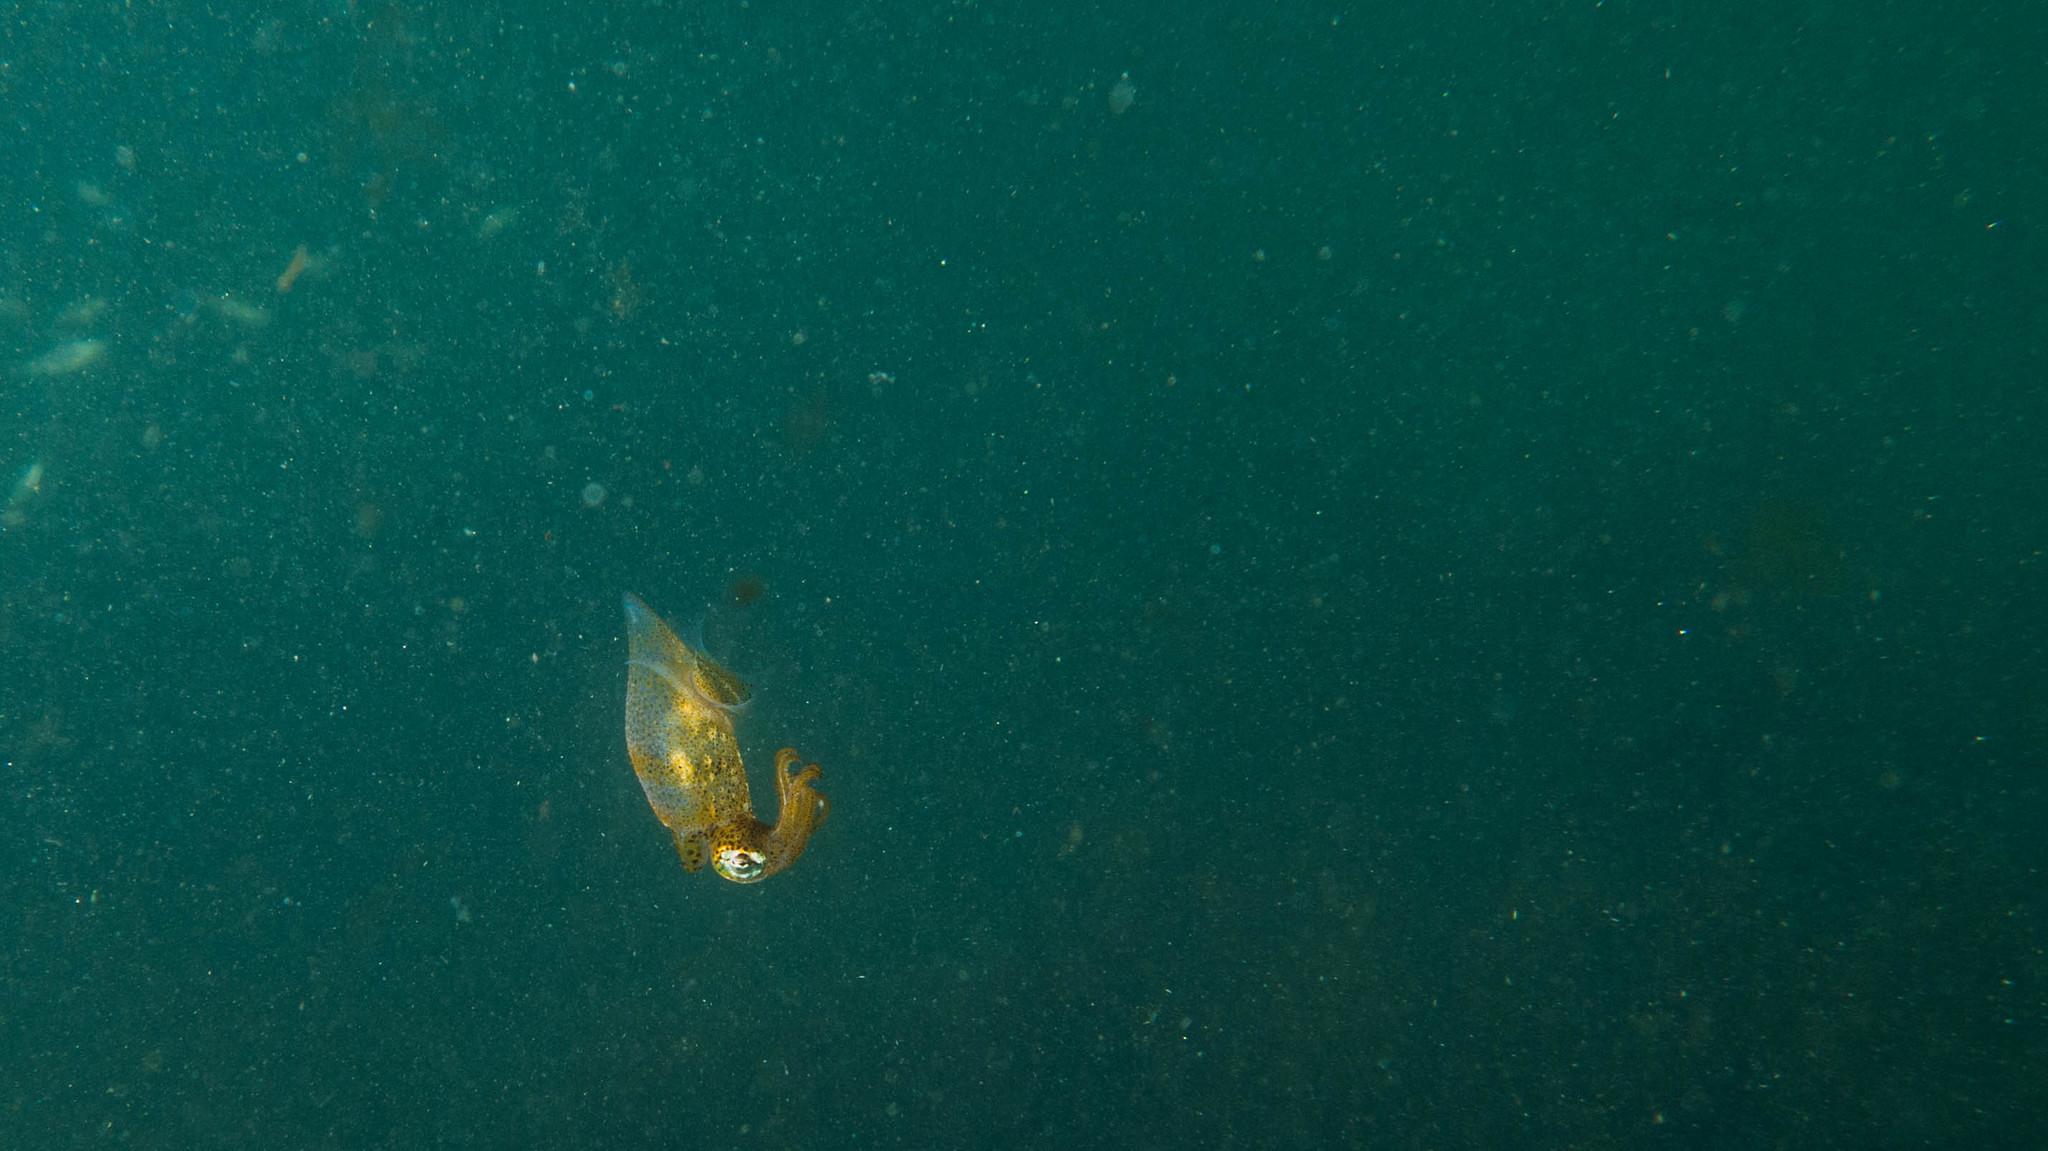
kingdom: Animalia
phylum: Mollusca
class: Cephalopoda
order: Myopsida
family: Loliginidae
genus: Pickfordiateuthis
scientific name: Pickfordiateuthis pulchella
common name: Grass squid
